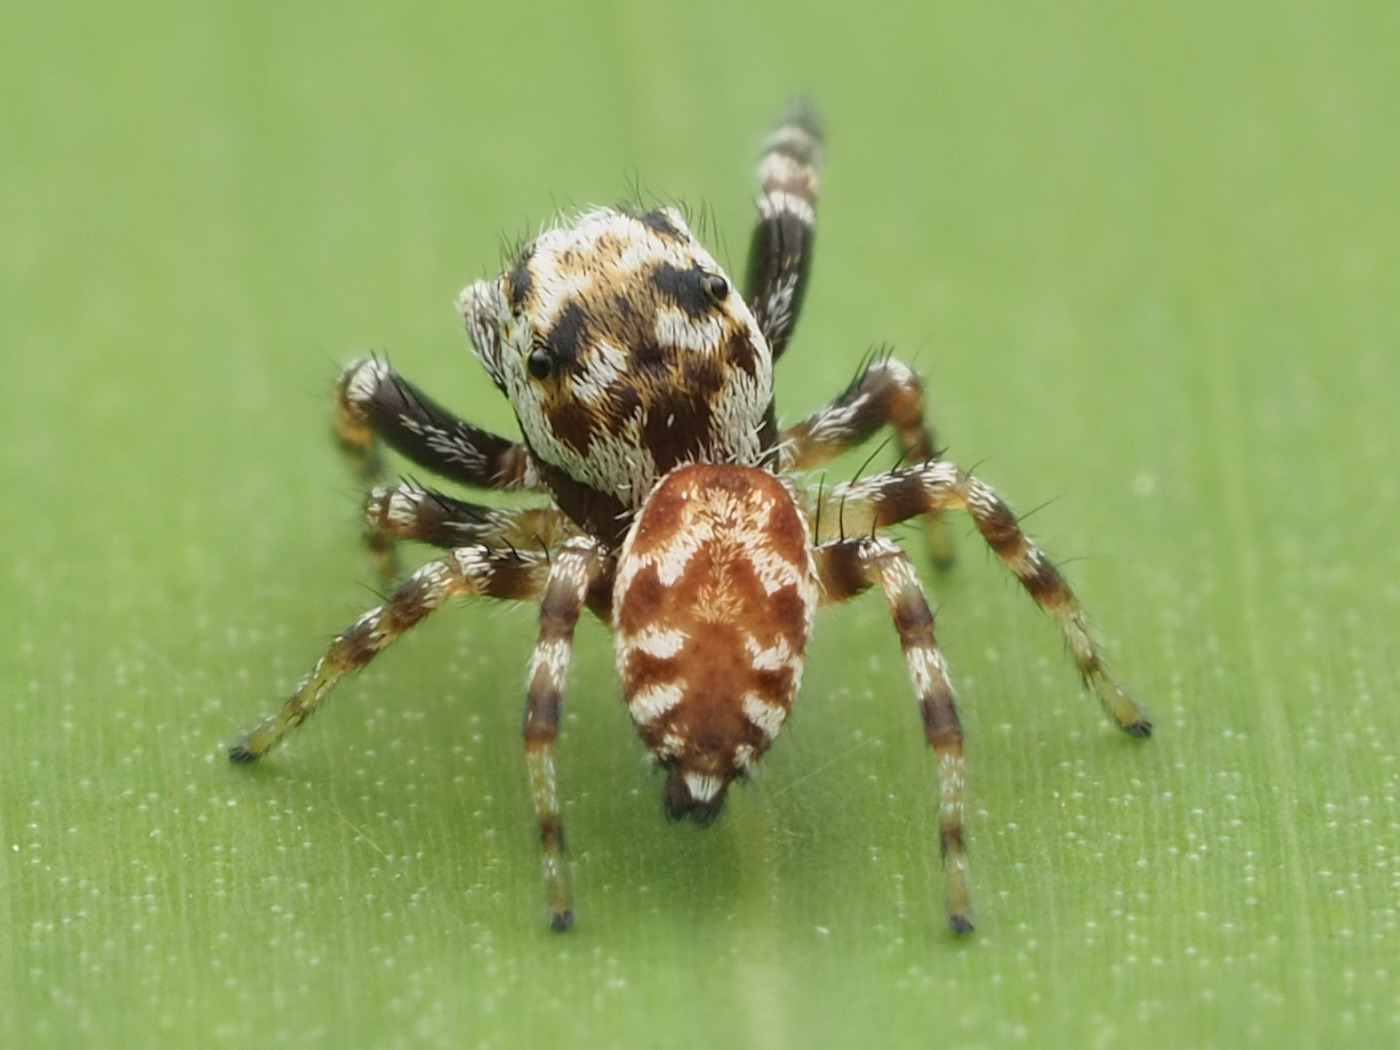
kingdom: Animalia
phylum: Arthropoda
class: Arachnida
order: Araneae
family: Salticidae
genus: Pelegrina
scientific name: Pelegrina variegata
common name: Jumping spiders
